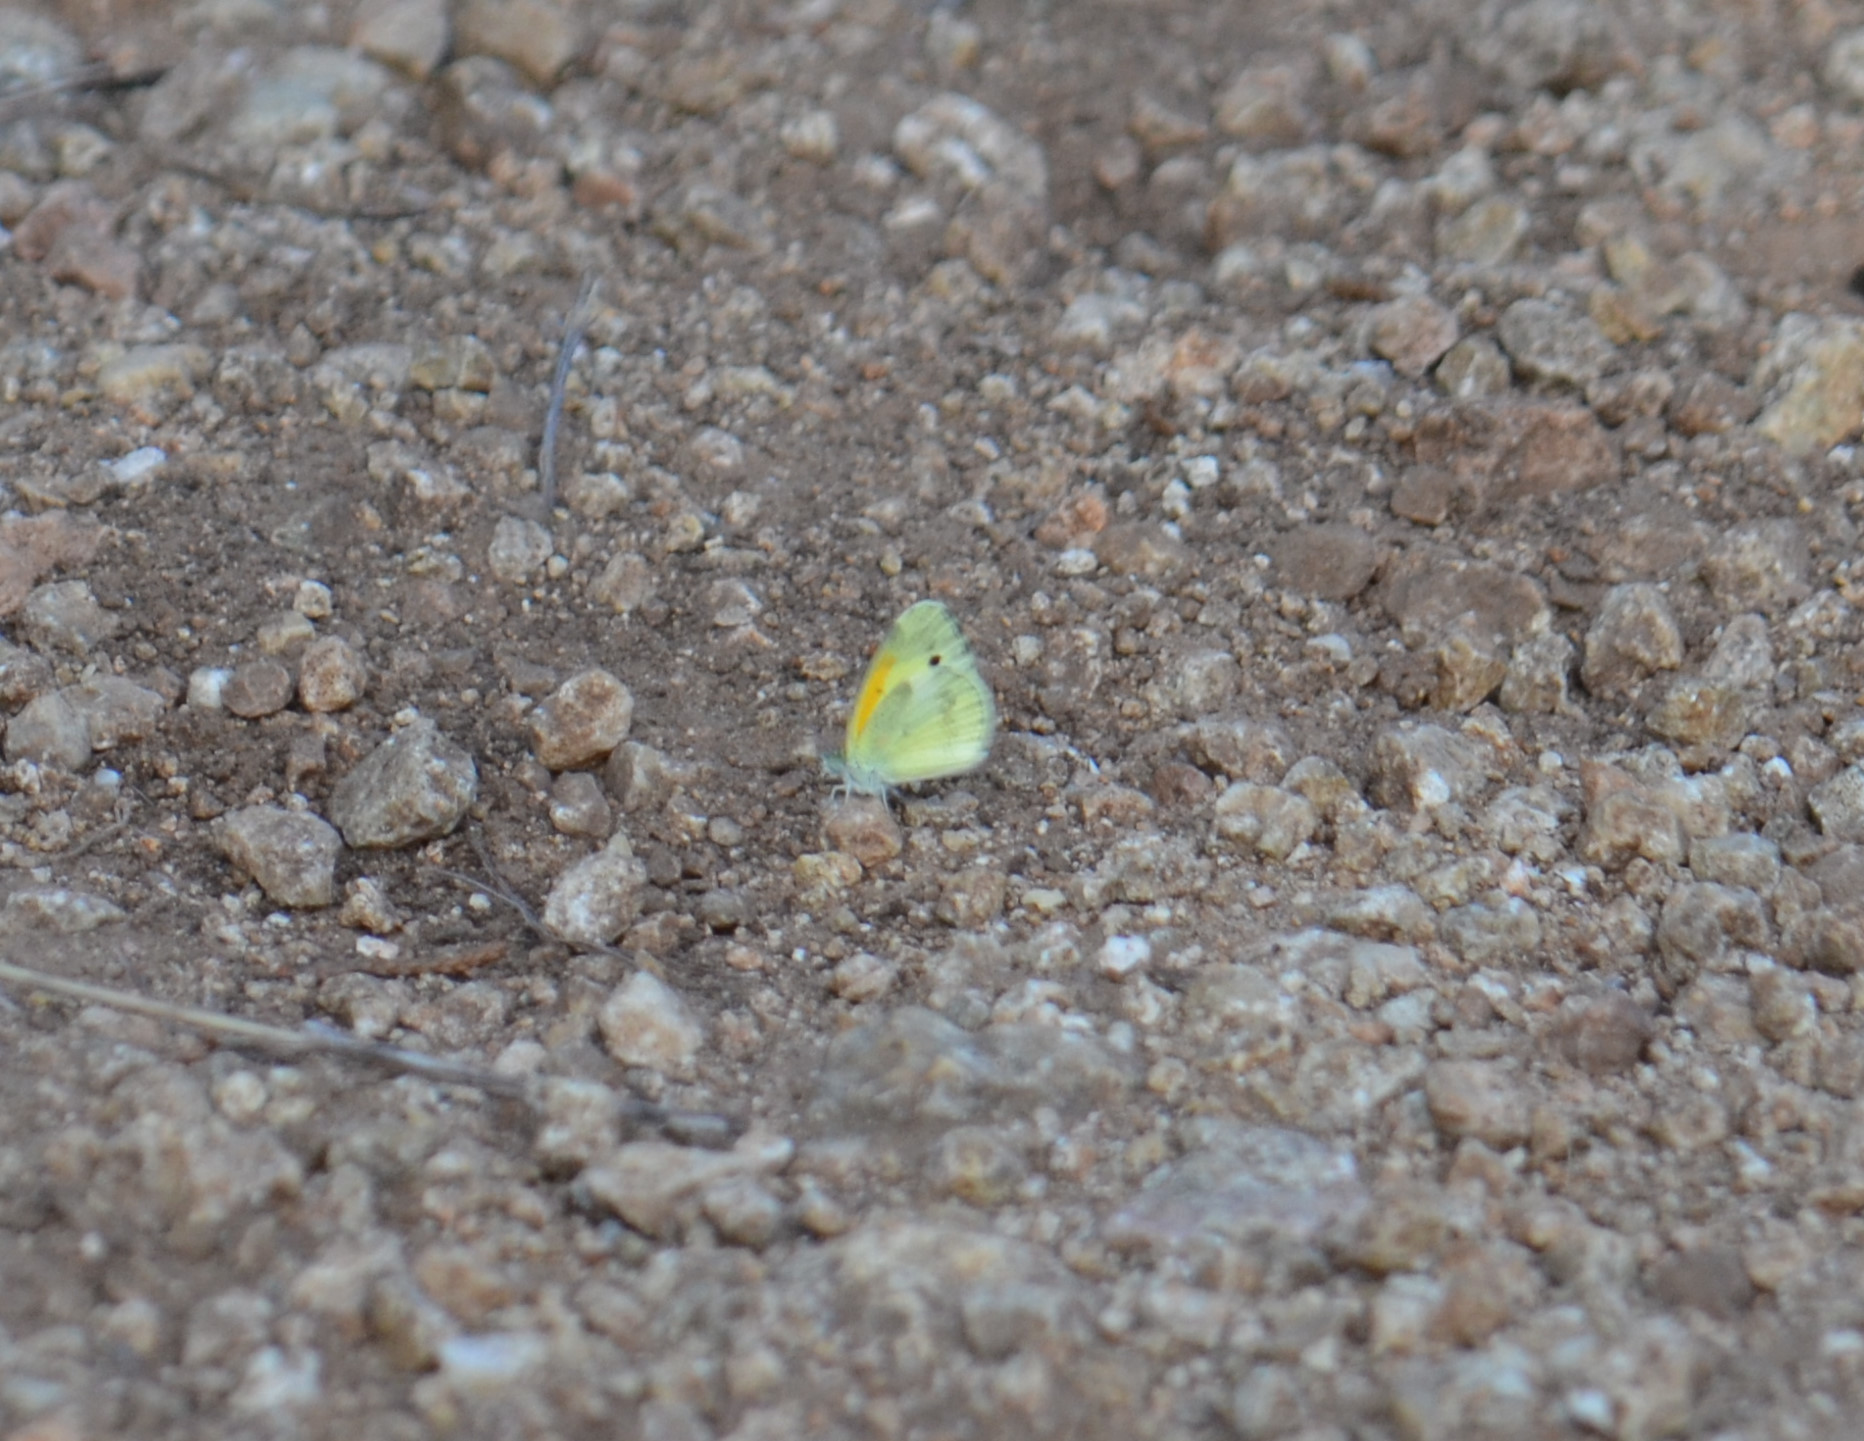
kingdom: Animalia
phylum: Arthropoda
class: Insecta
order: Lepidoptera
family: Pieridae
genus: Nathalis
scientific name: Nathalis iole
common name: Dainty sulphur
